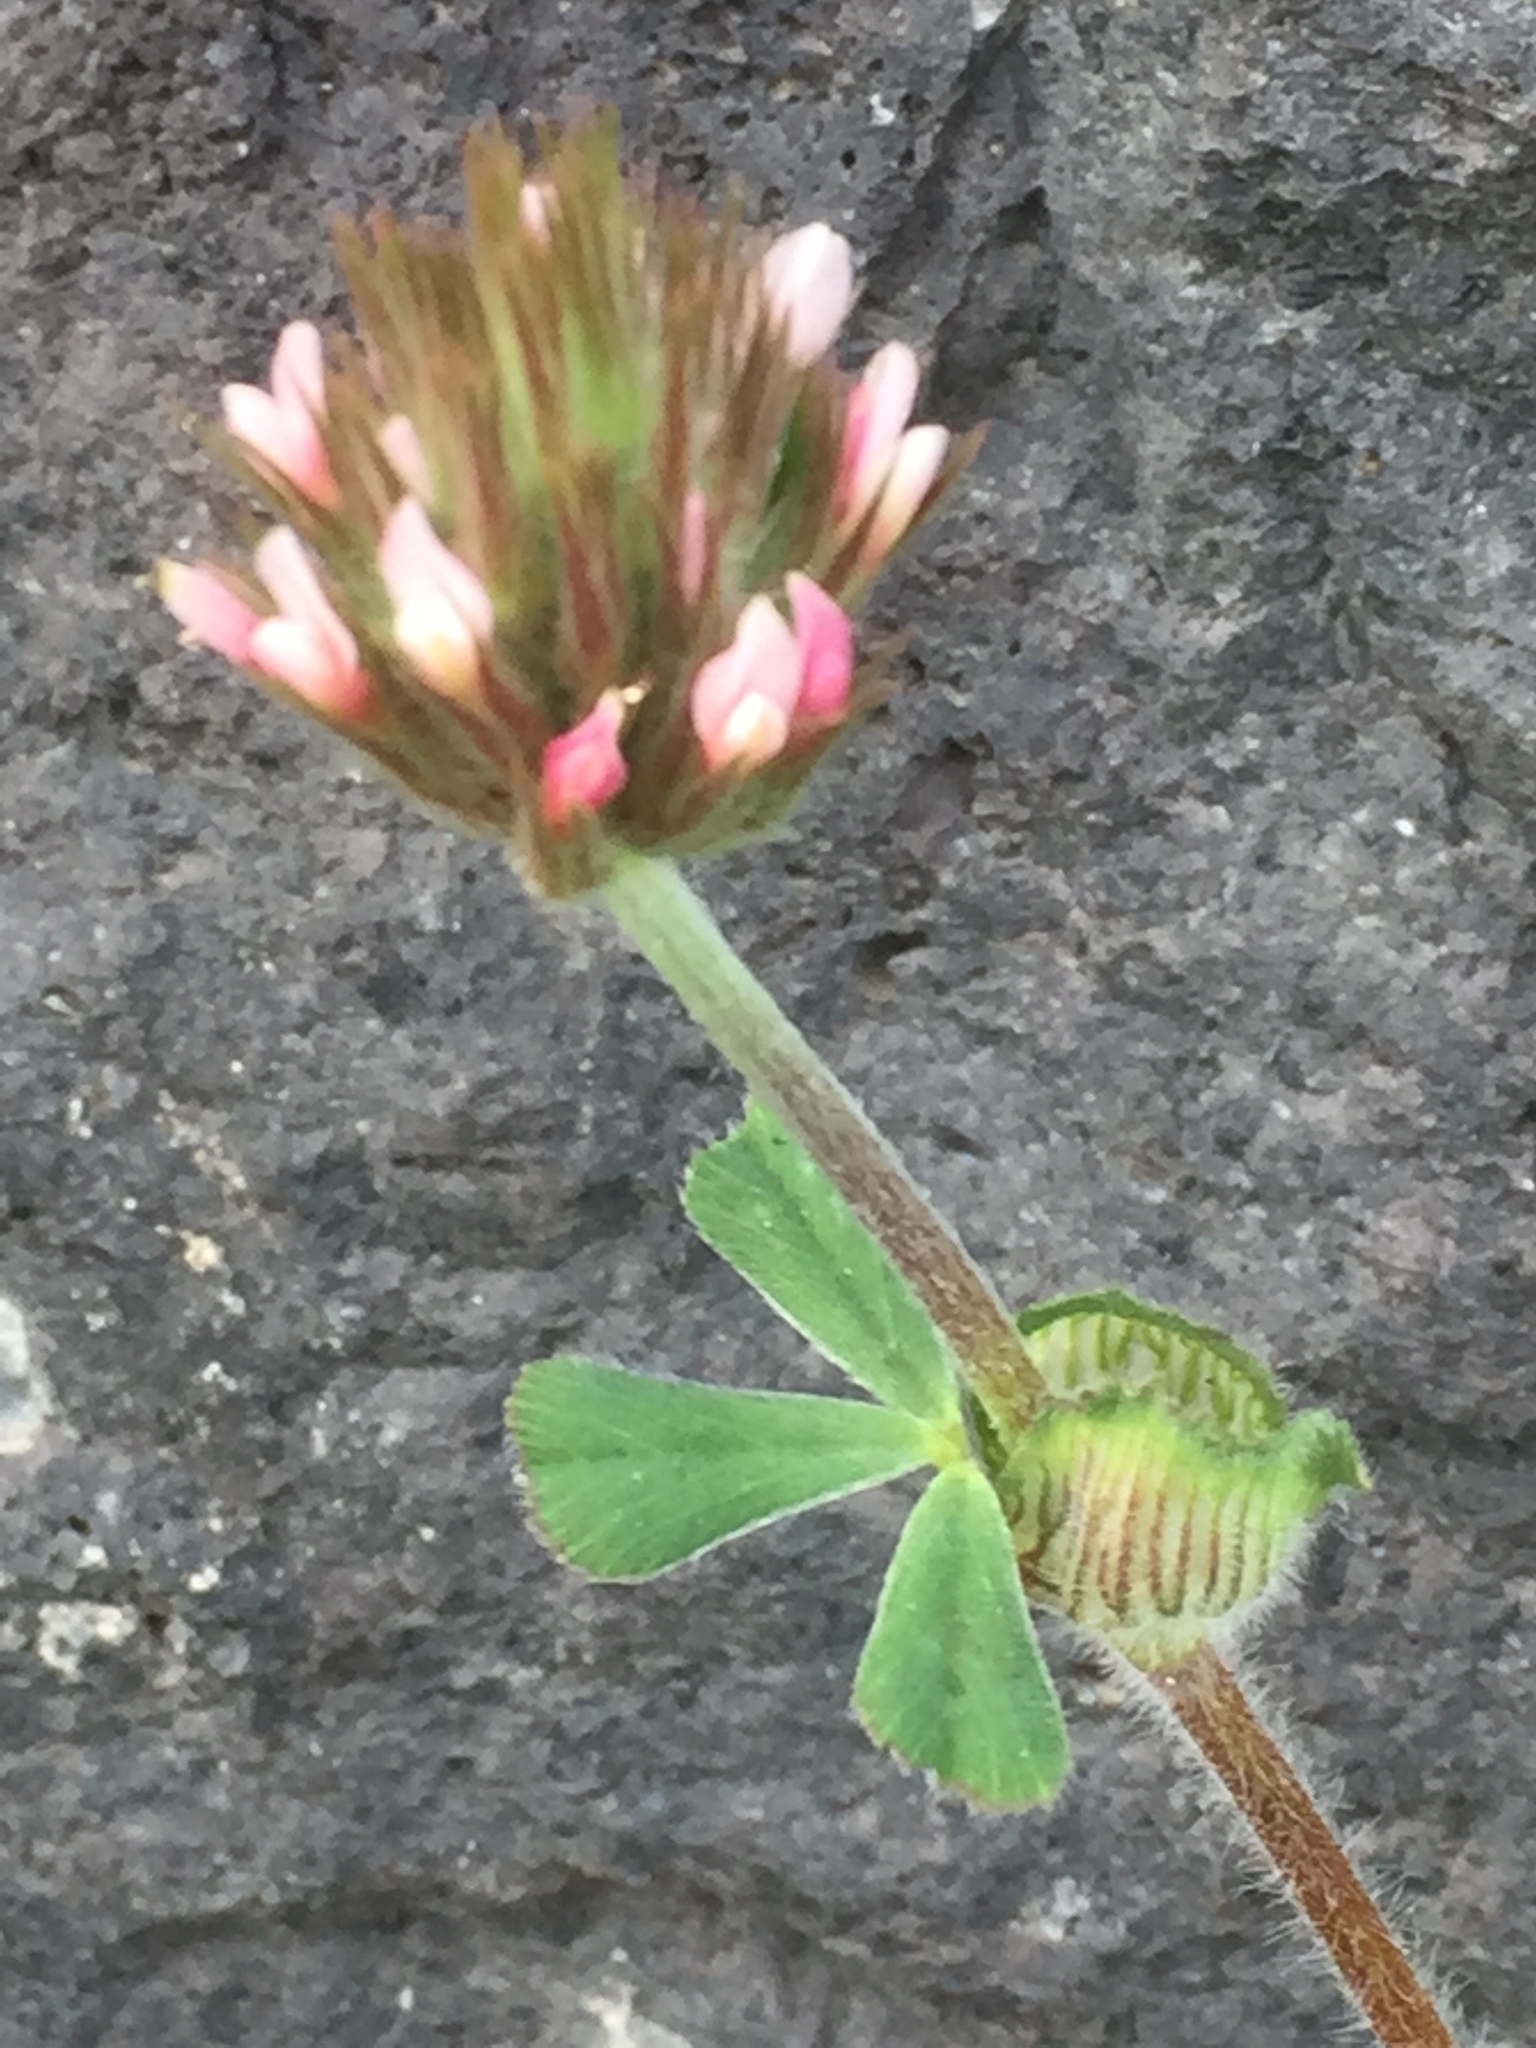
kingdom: Plantae
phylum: Tracheophyta
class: Magnoliopsida
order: Fabales
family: Fabaceae
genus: Trifolium
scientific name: Trifolium stellatum
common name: Starry clover
